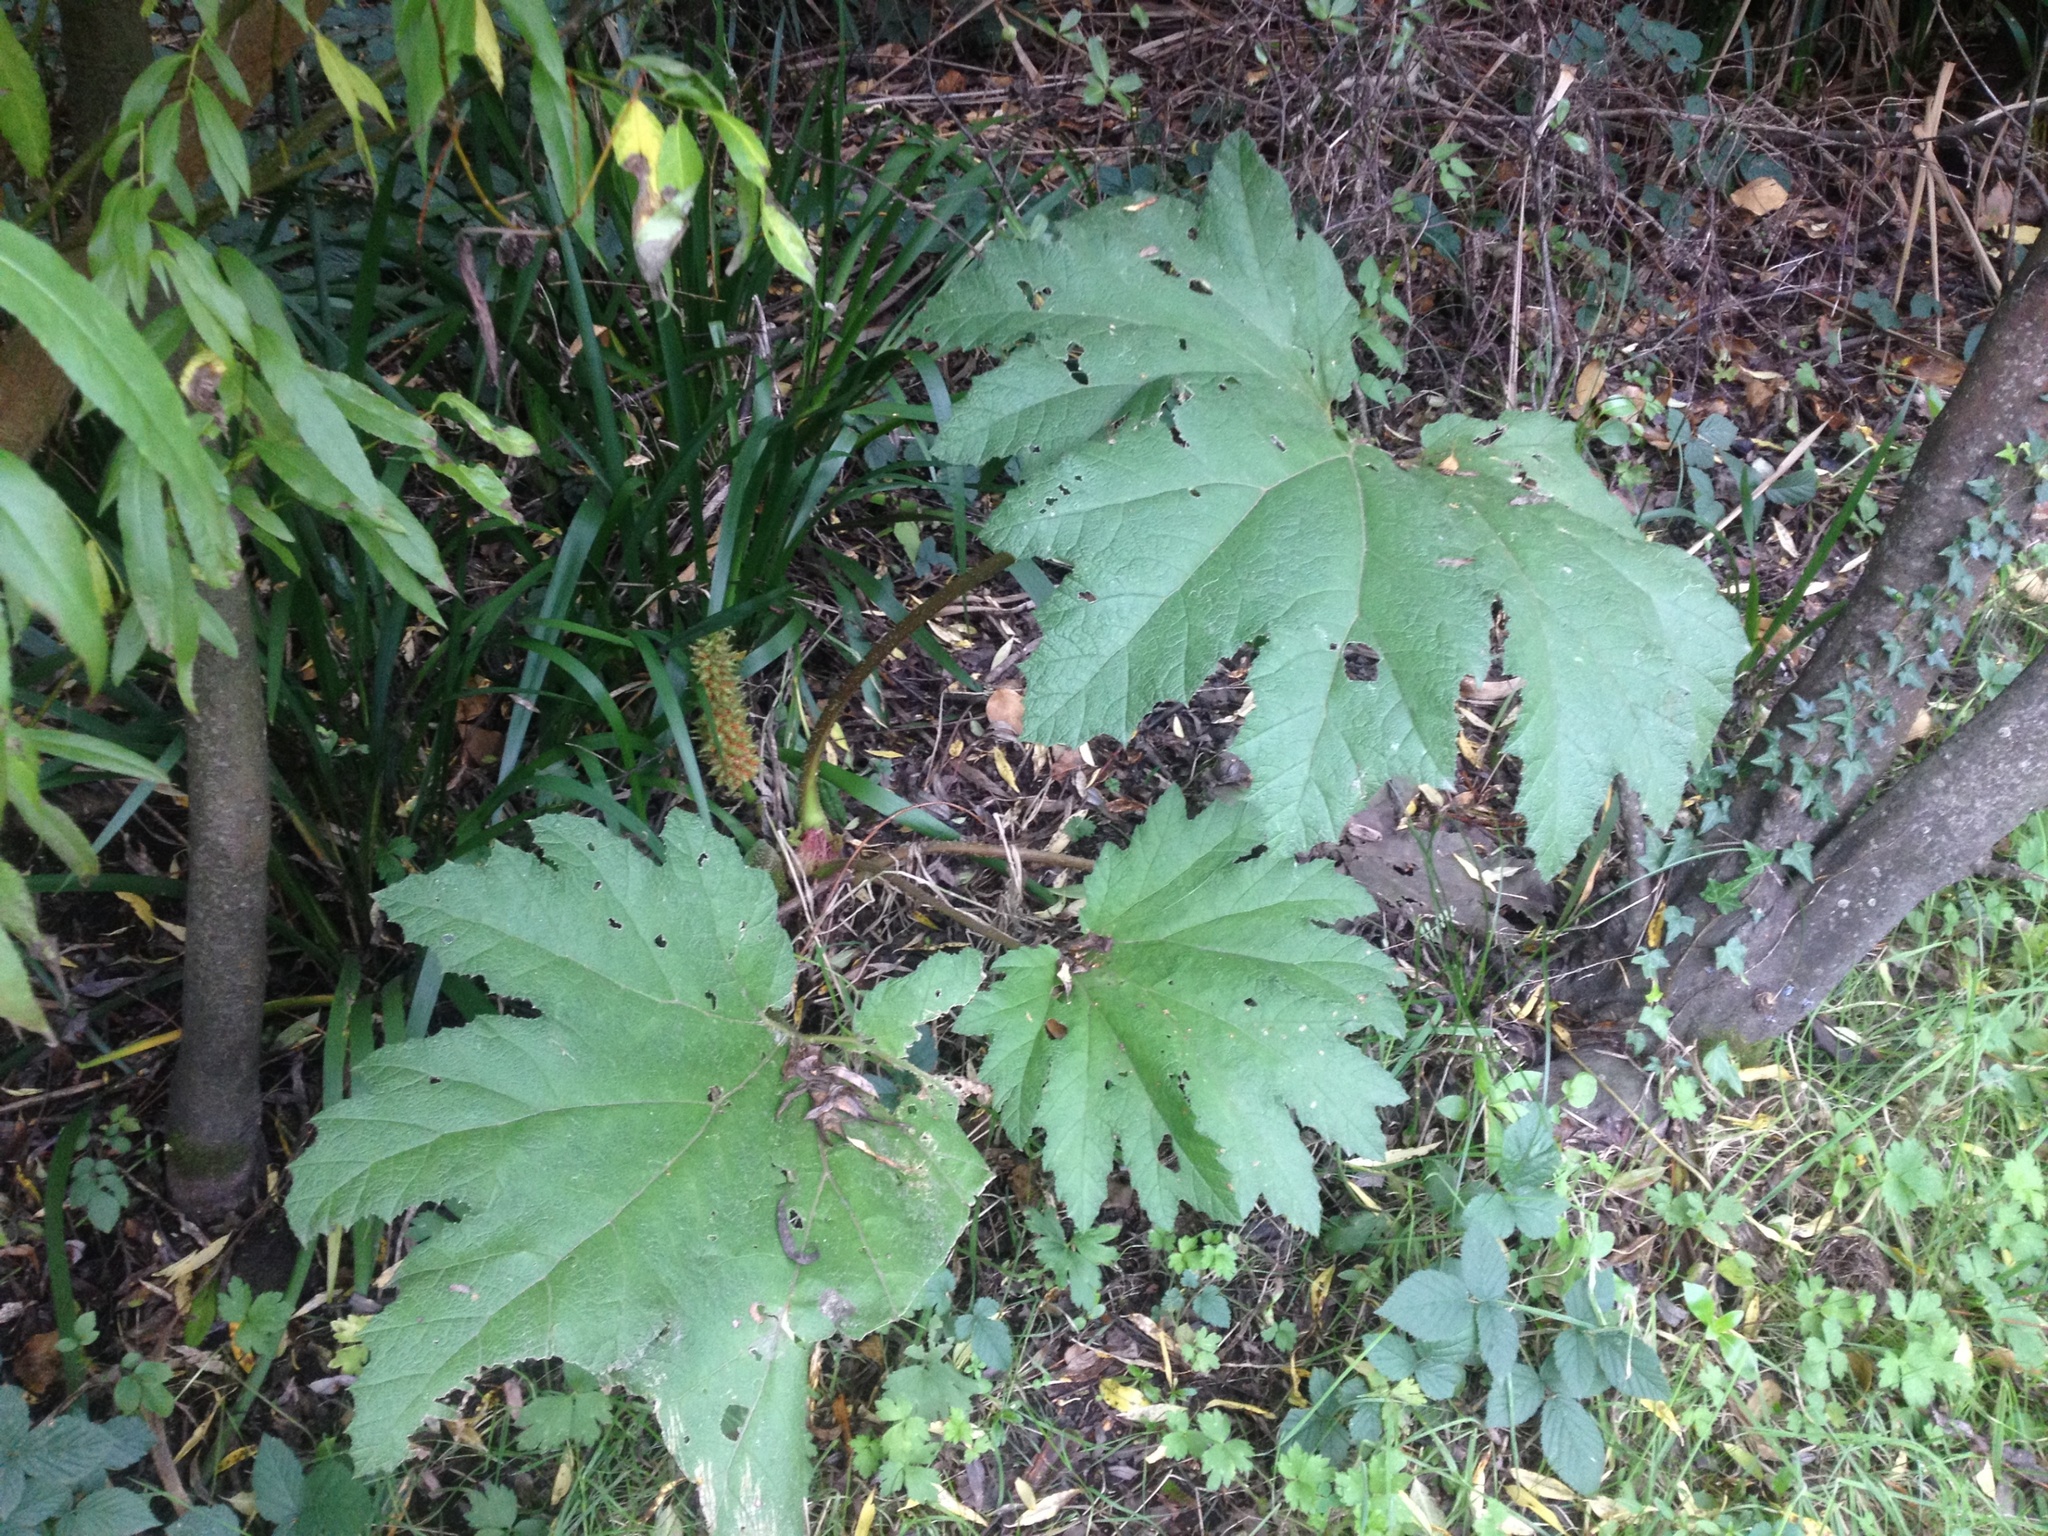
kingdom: Plantae
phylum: Tracheophyta
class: Magnoliopsida
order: Gunnerales
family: Gunneraceae
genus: Gunnera
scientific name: Gunnera tinctoria
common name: Giant-rhubarb
